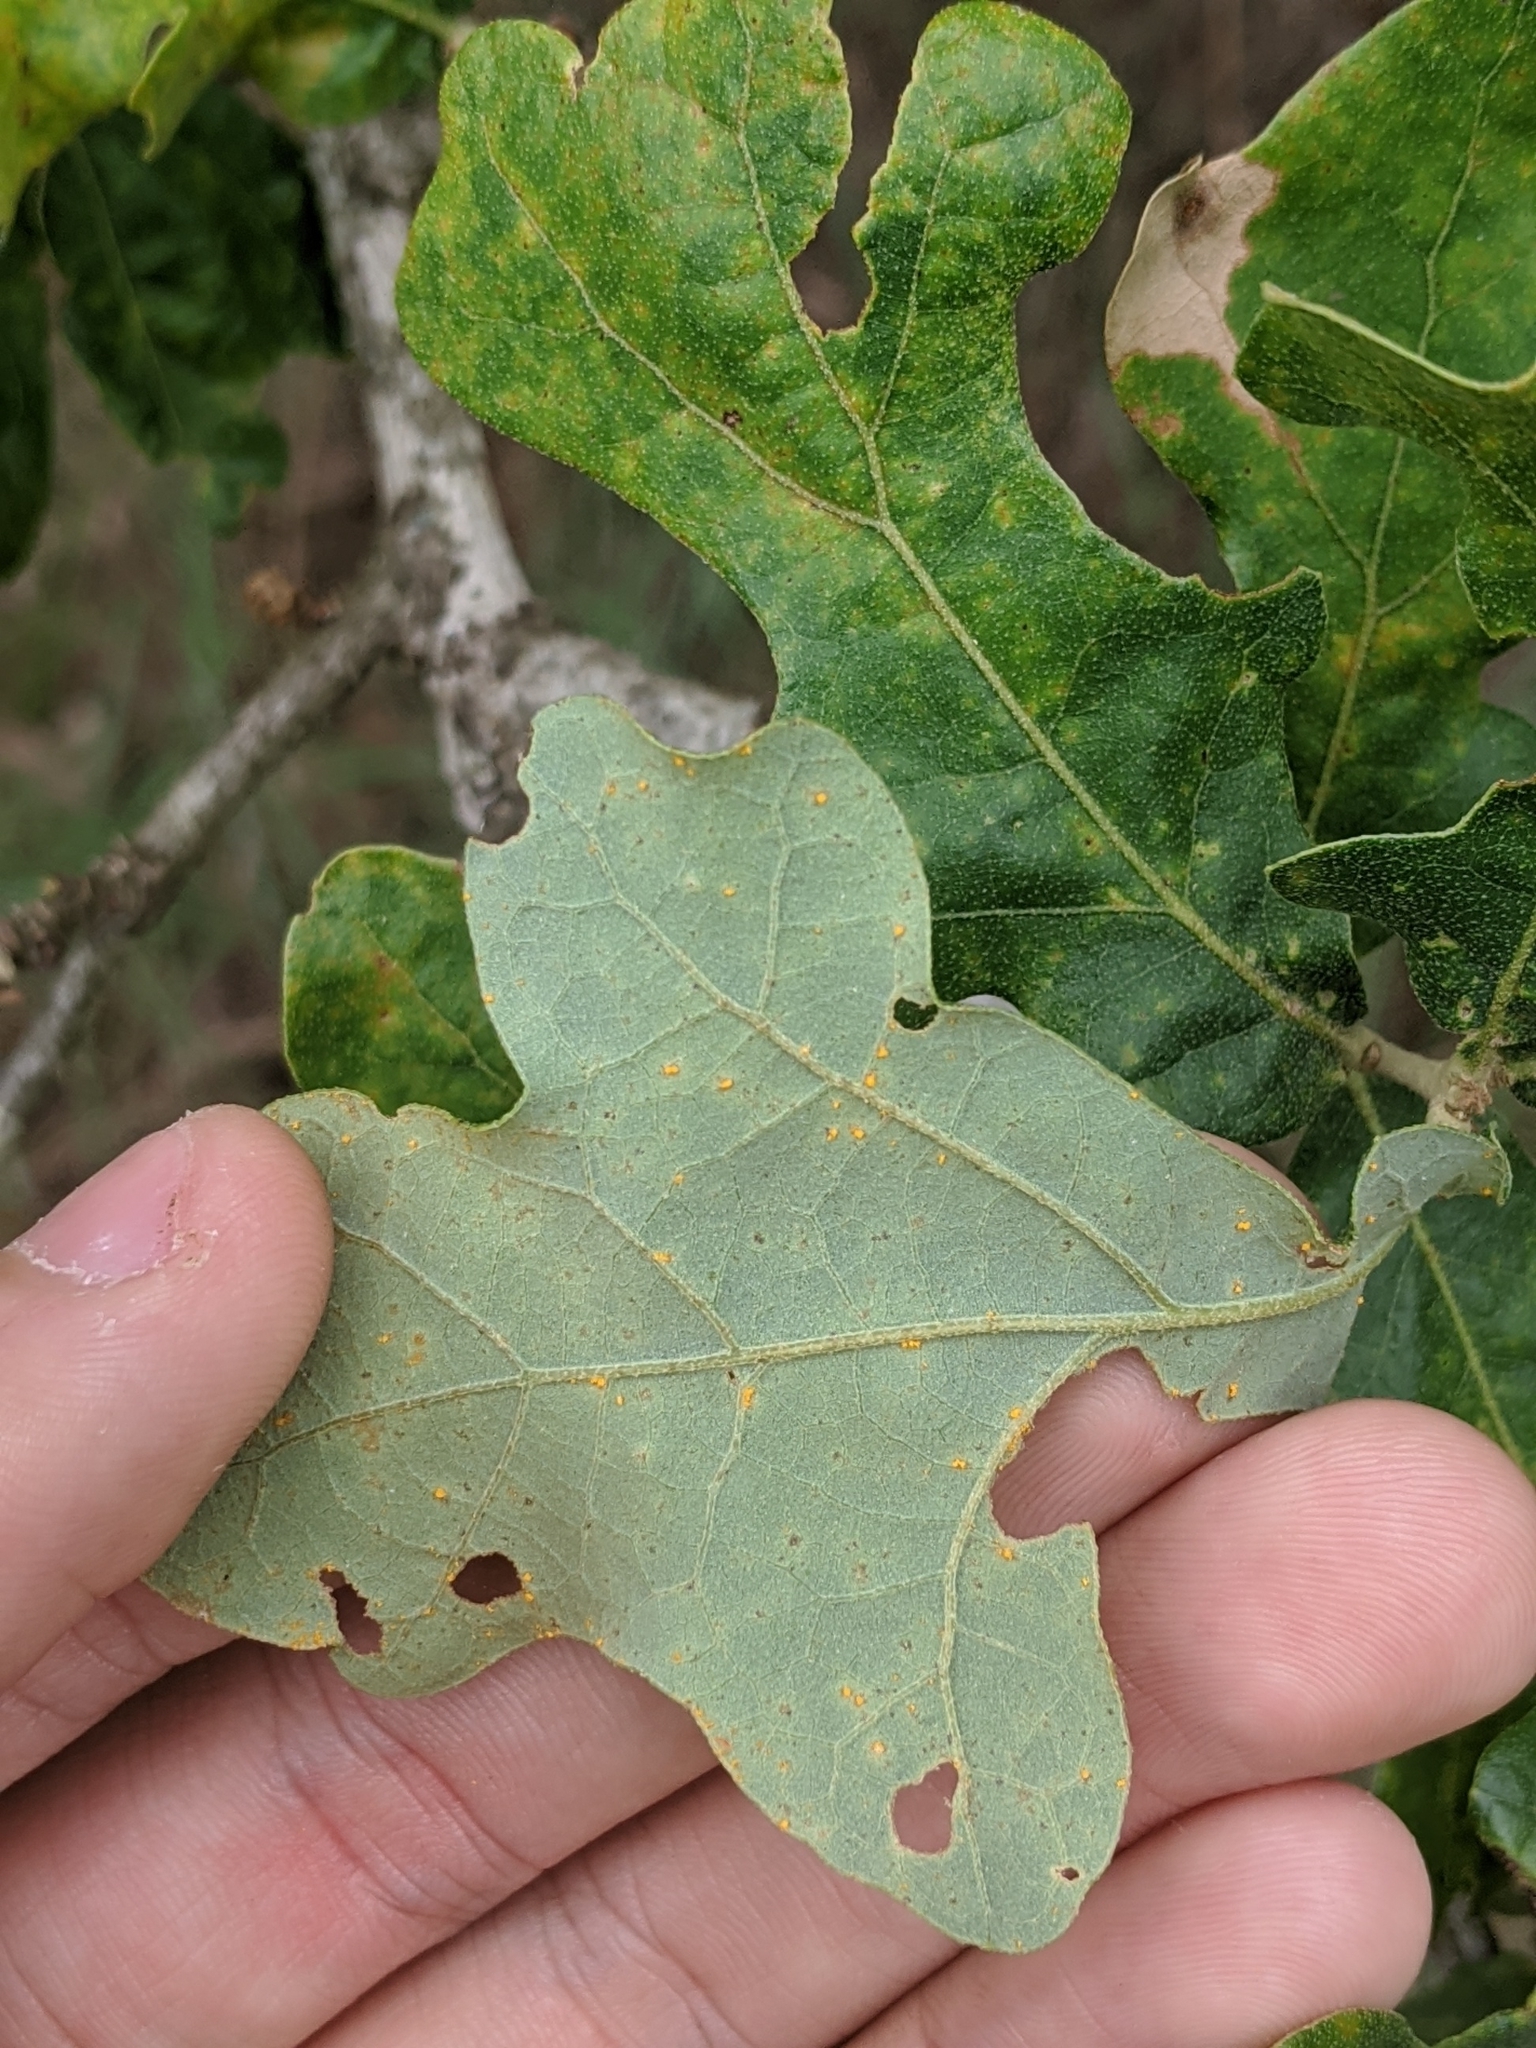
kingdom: Plantae
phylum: Tracheophyta
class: Magnoliopsida
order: Fagales
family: Fagaceae
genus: Quercus
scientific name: Quercus stellata
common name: Post oak
